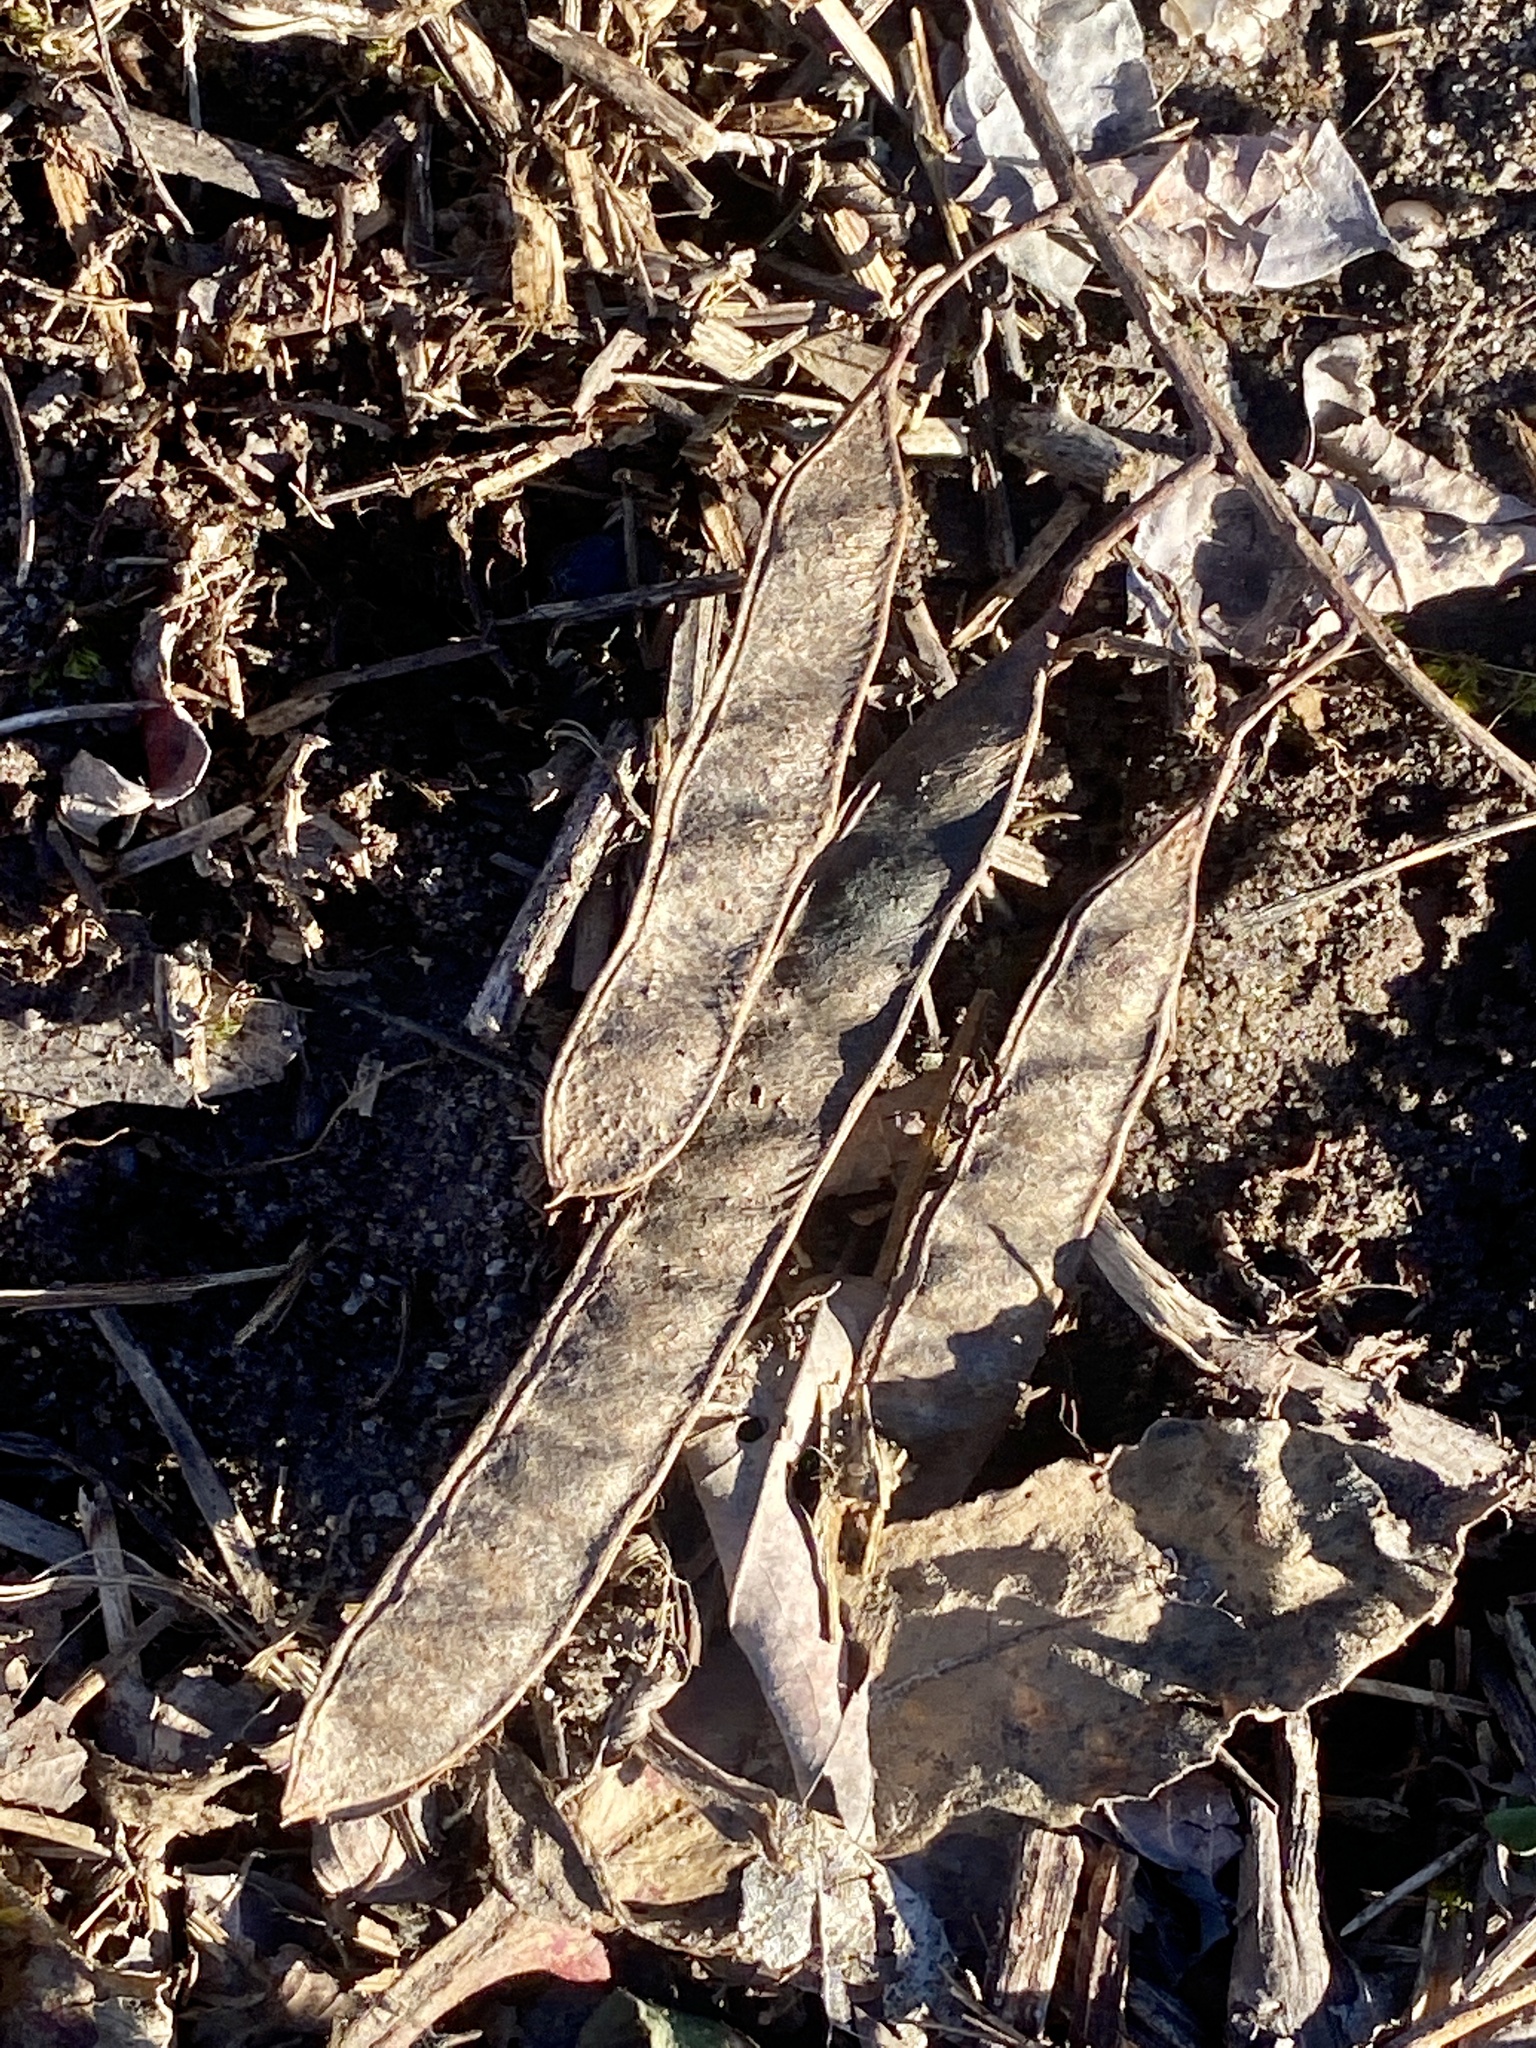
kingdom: Plantae
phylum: Tracheophyta
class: Magnoliopsida
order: Fabales
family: Fabaceae
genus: Robinia
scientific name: Robinia pseudoacacia
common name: Black locust
